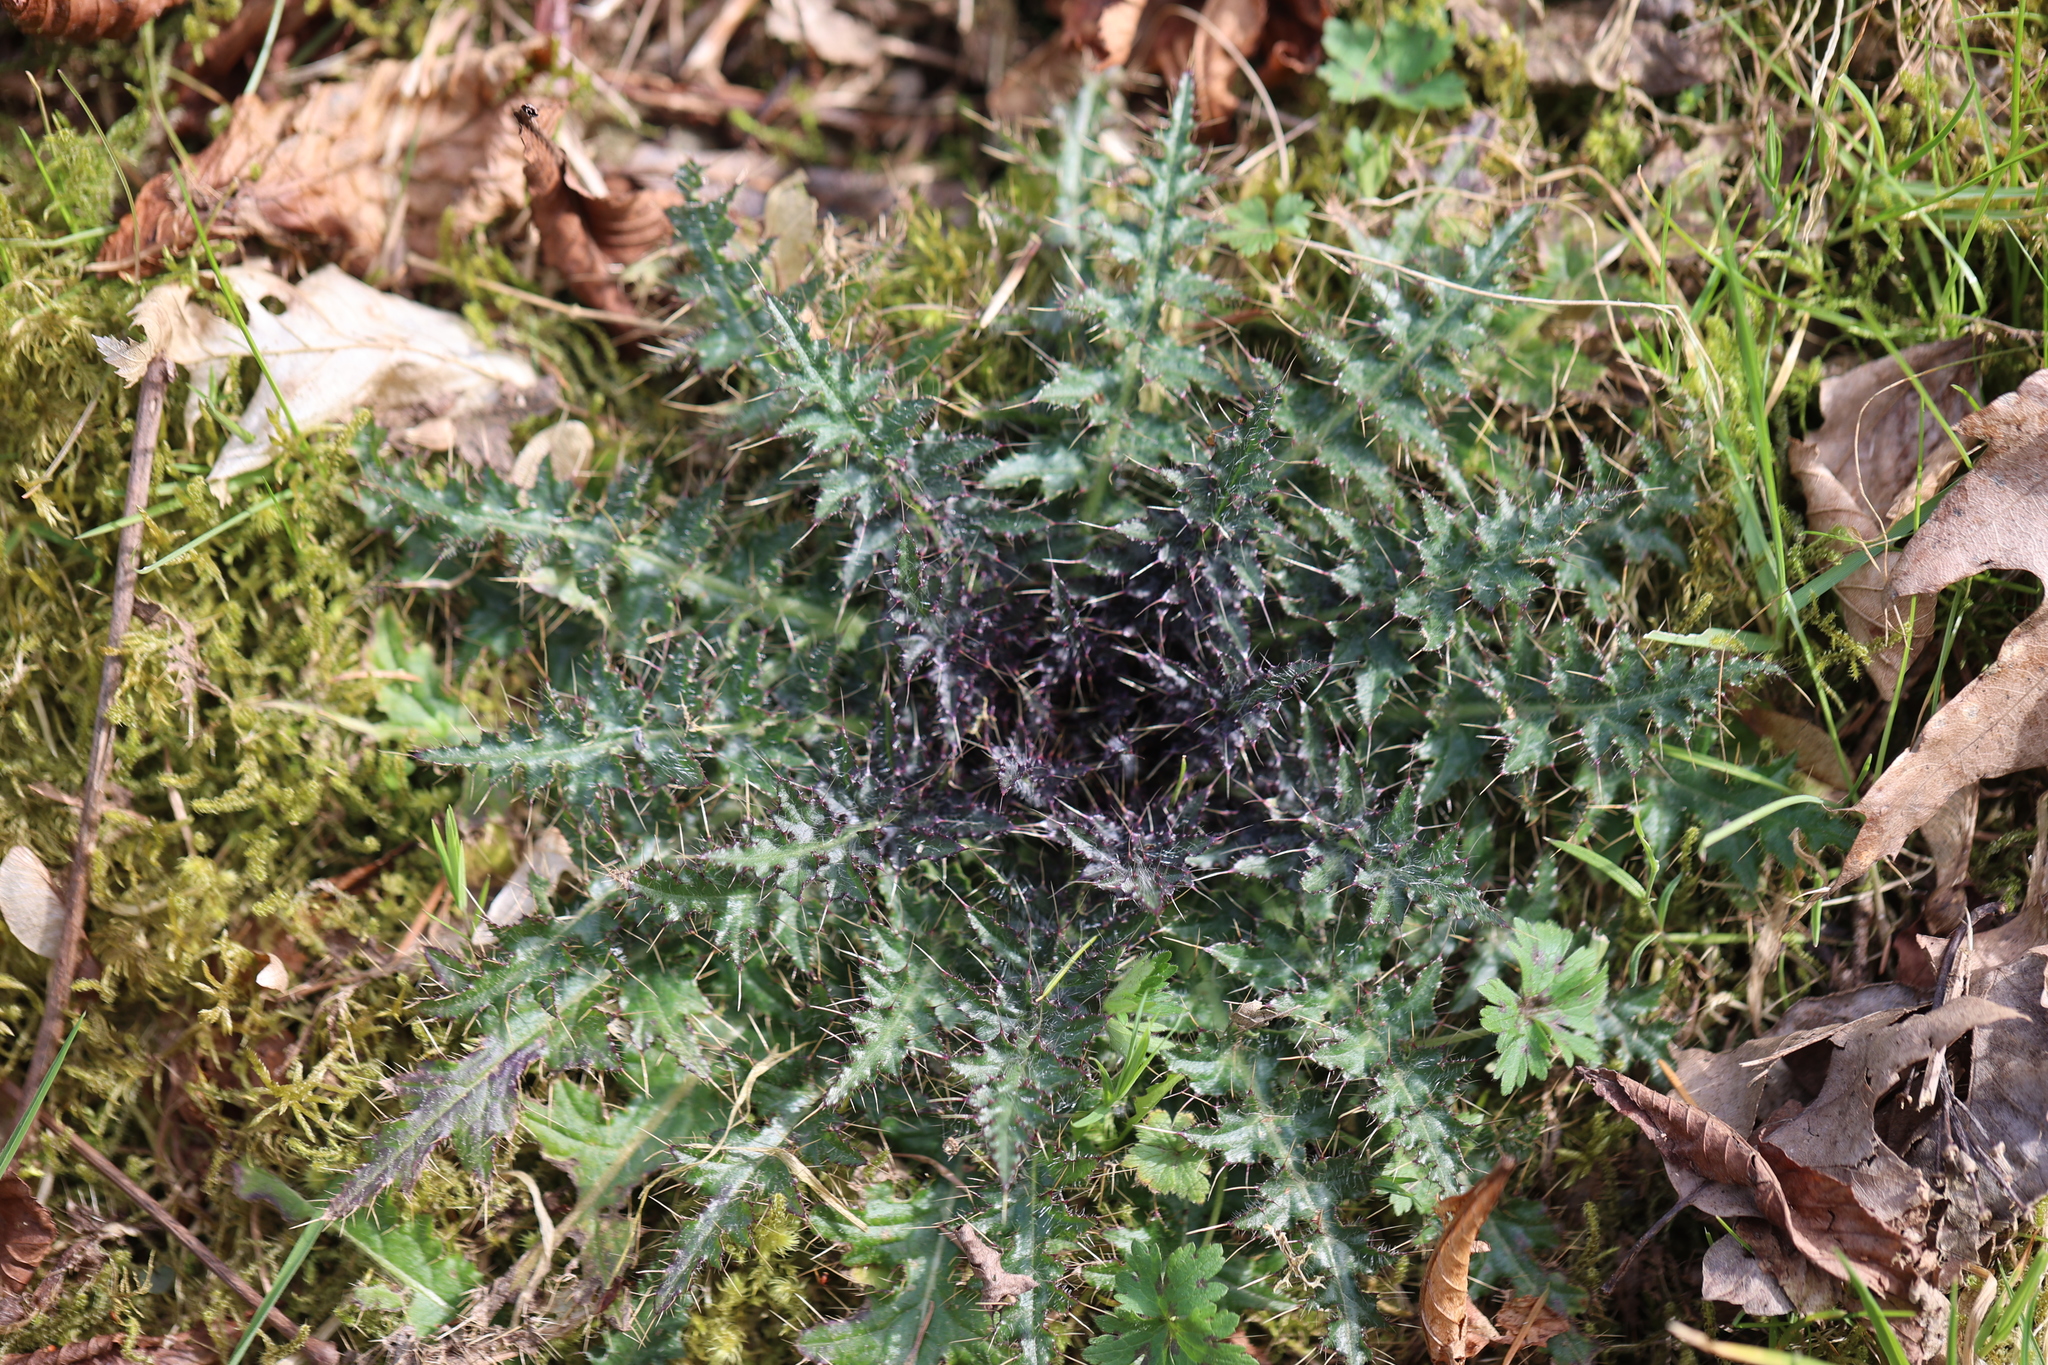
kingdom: Plantae
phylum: Tracheophyta
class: Magnoliopsida
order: Asterales
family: Asteraceae
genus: Cirsium
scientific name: Cirsium palustre
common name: Marsh thistle
